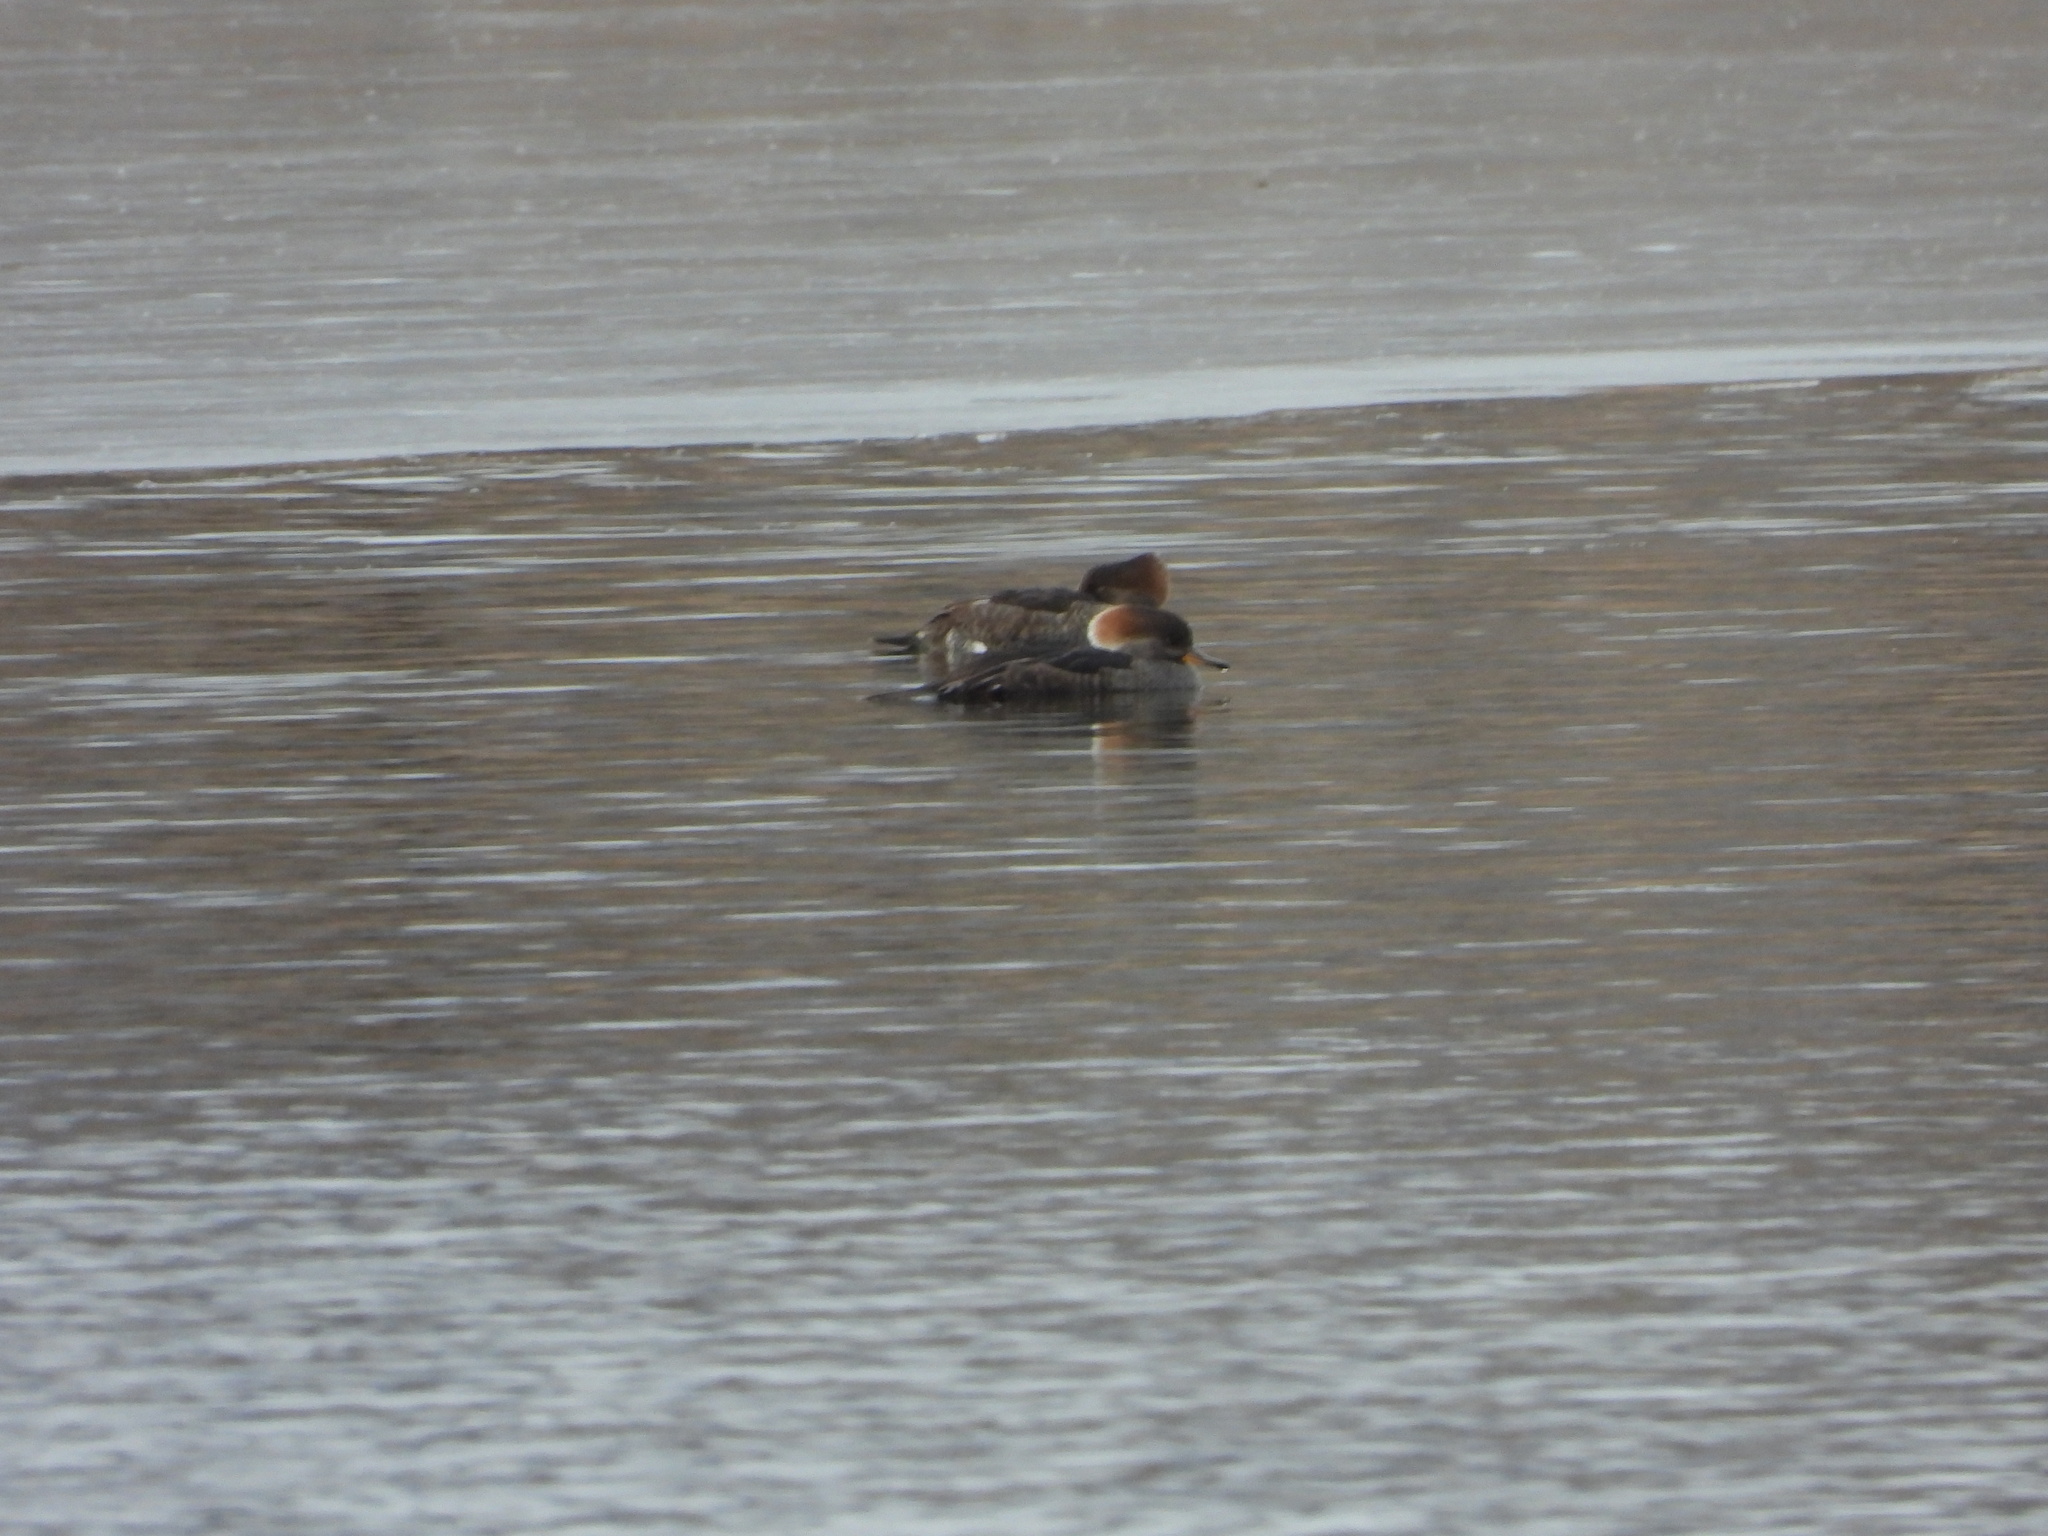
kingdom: Animalia
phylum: Chordata
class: Aves
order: Anseriformes
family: Anatidae
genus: Lophodytes
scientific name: Lophodytes cucullatus
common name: Hooded merganser
